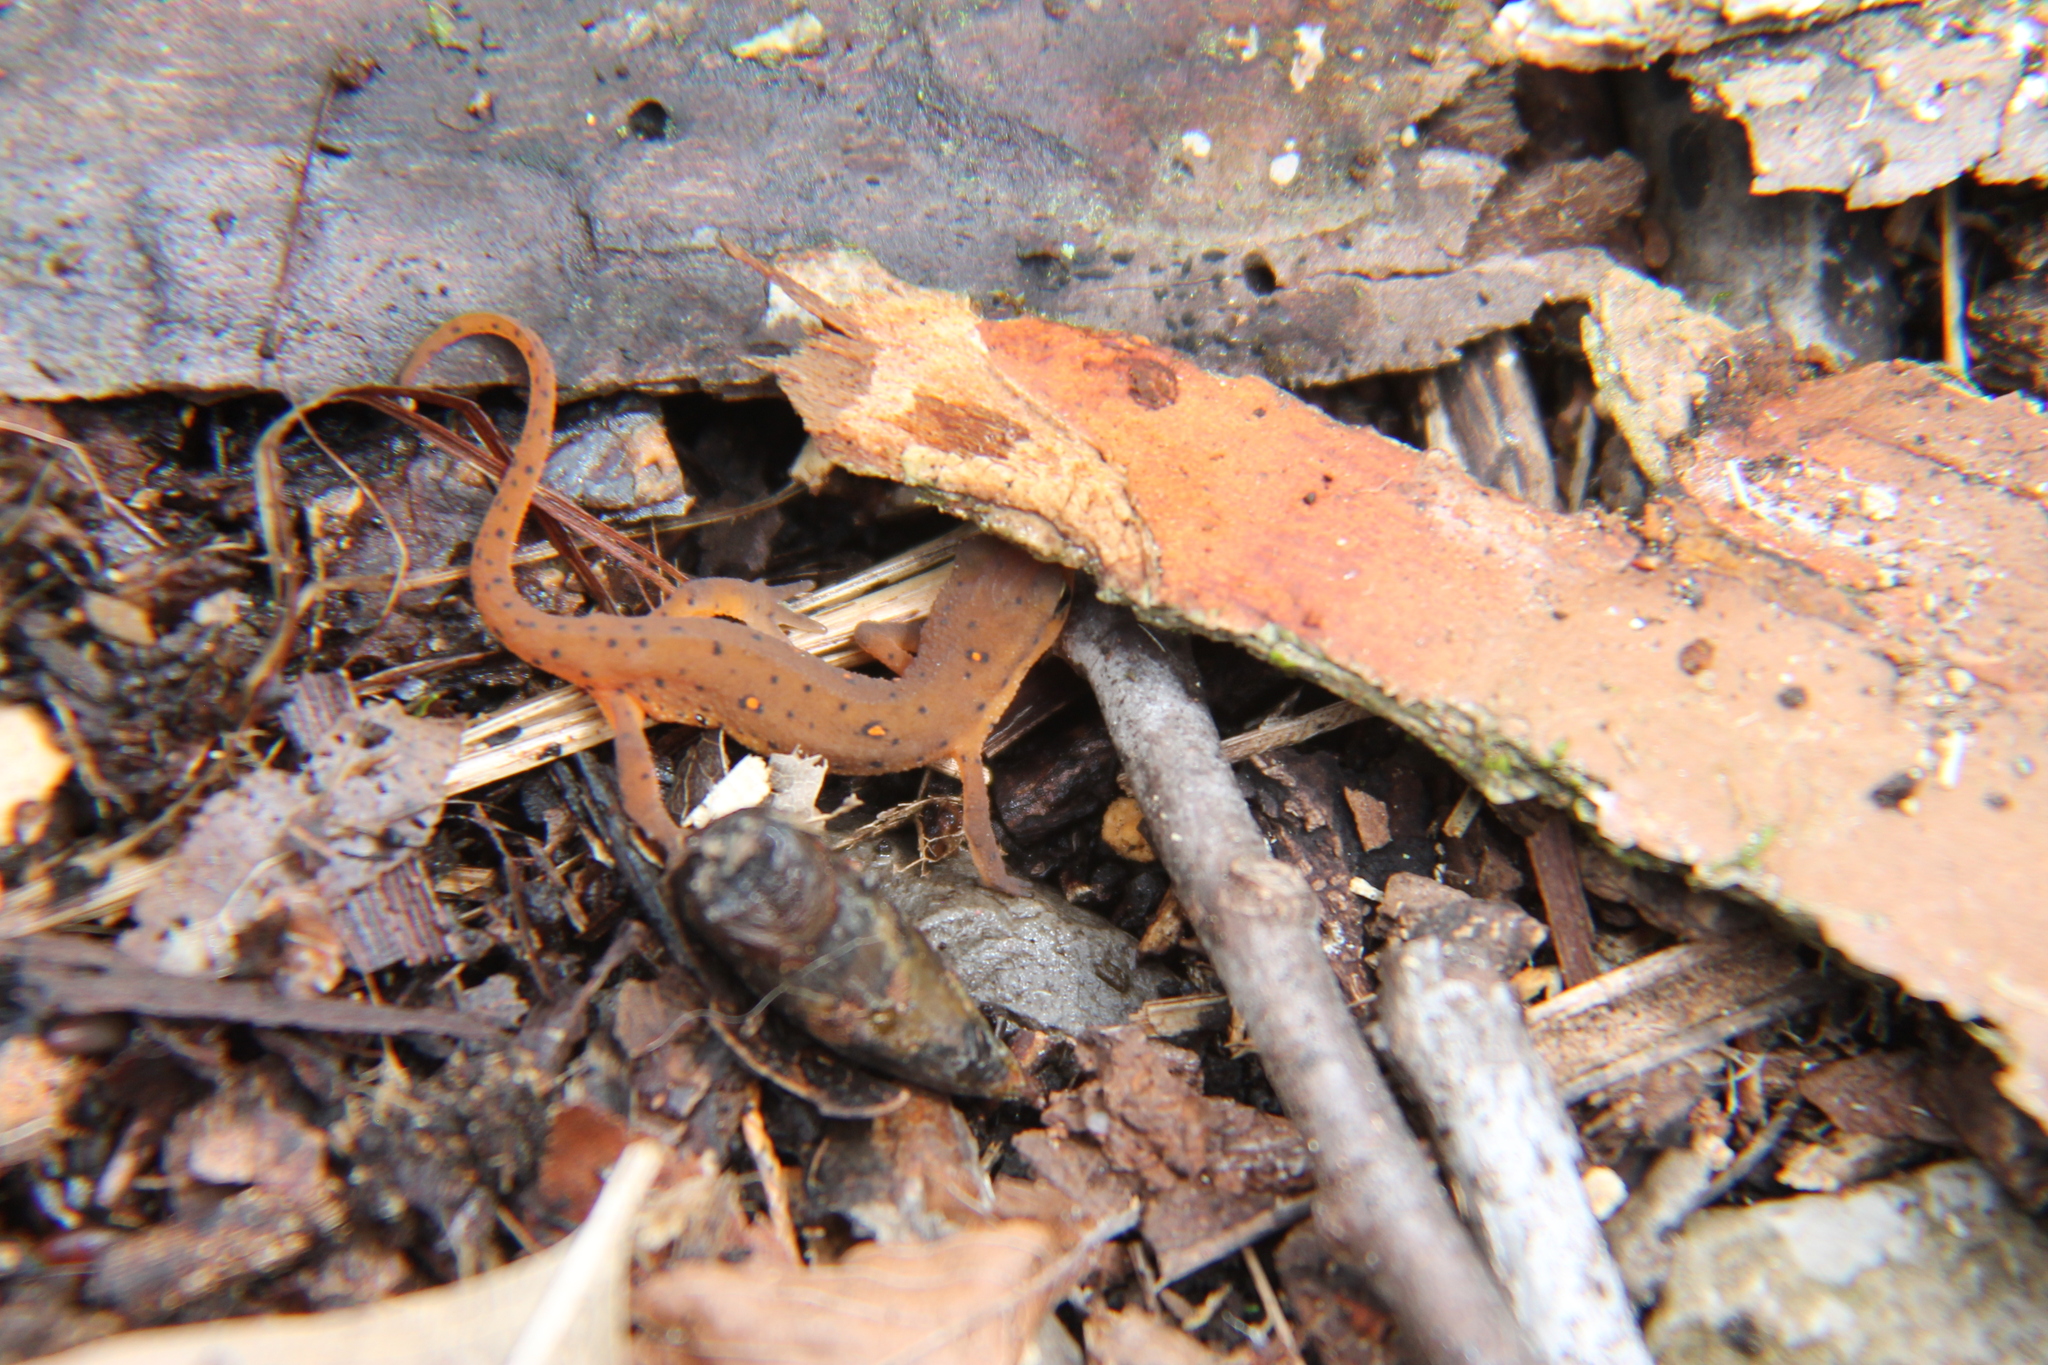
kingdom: Animalia
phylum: Chordata
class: Amphibia
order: Caudata
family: Salamandridae
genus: Notophthalmus
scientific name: Notophthalmus viridescens
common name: Eastern newt
